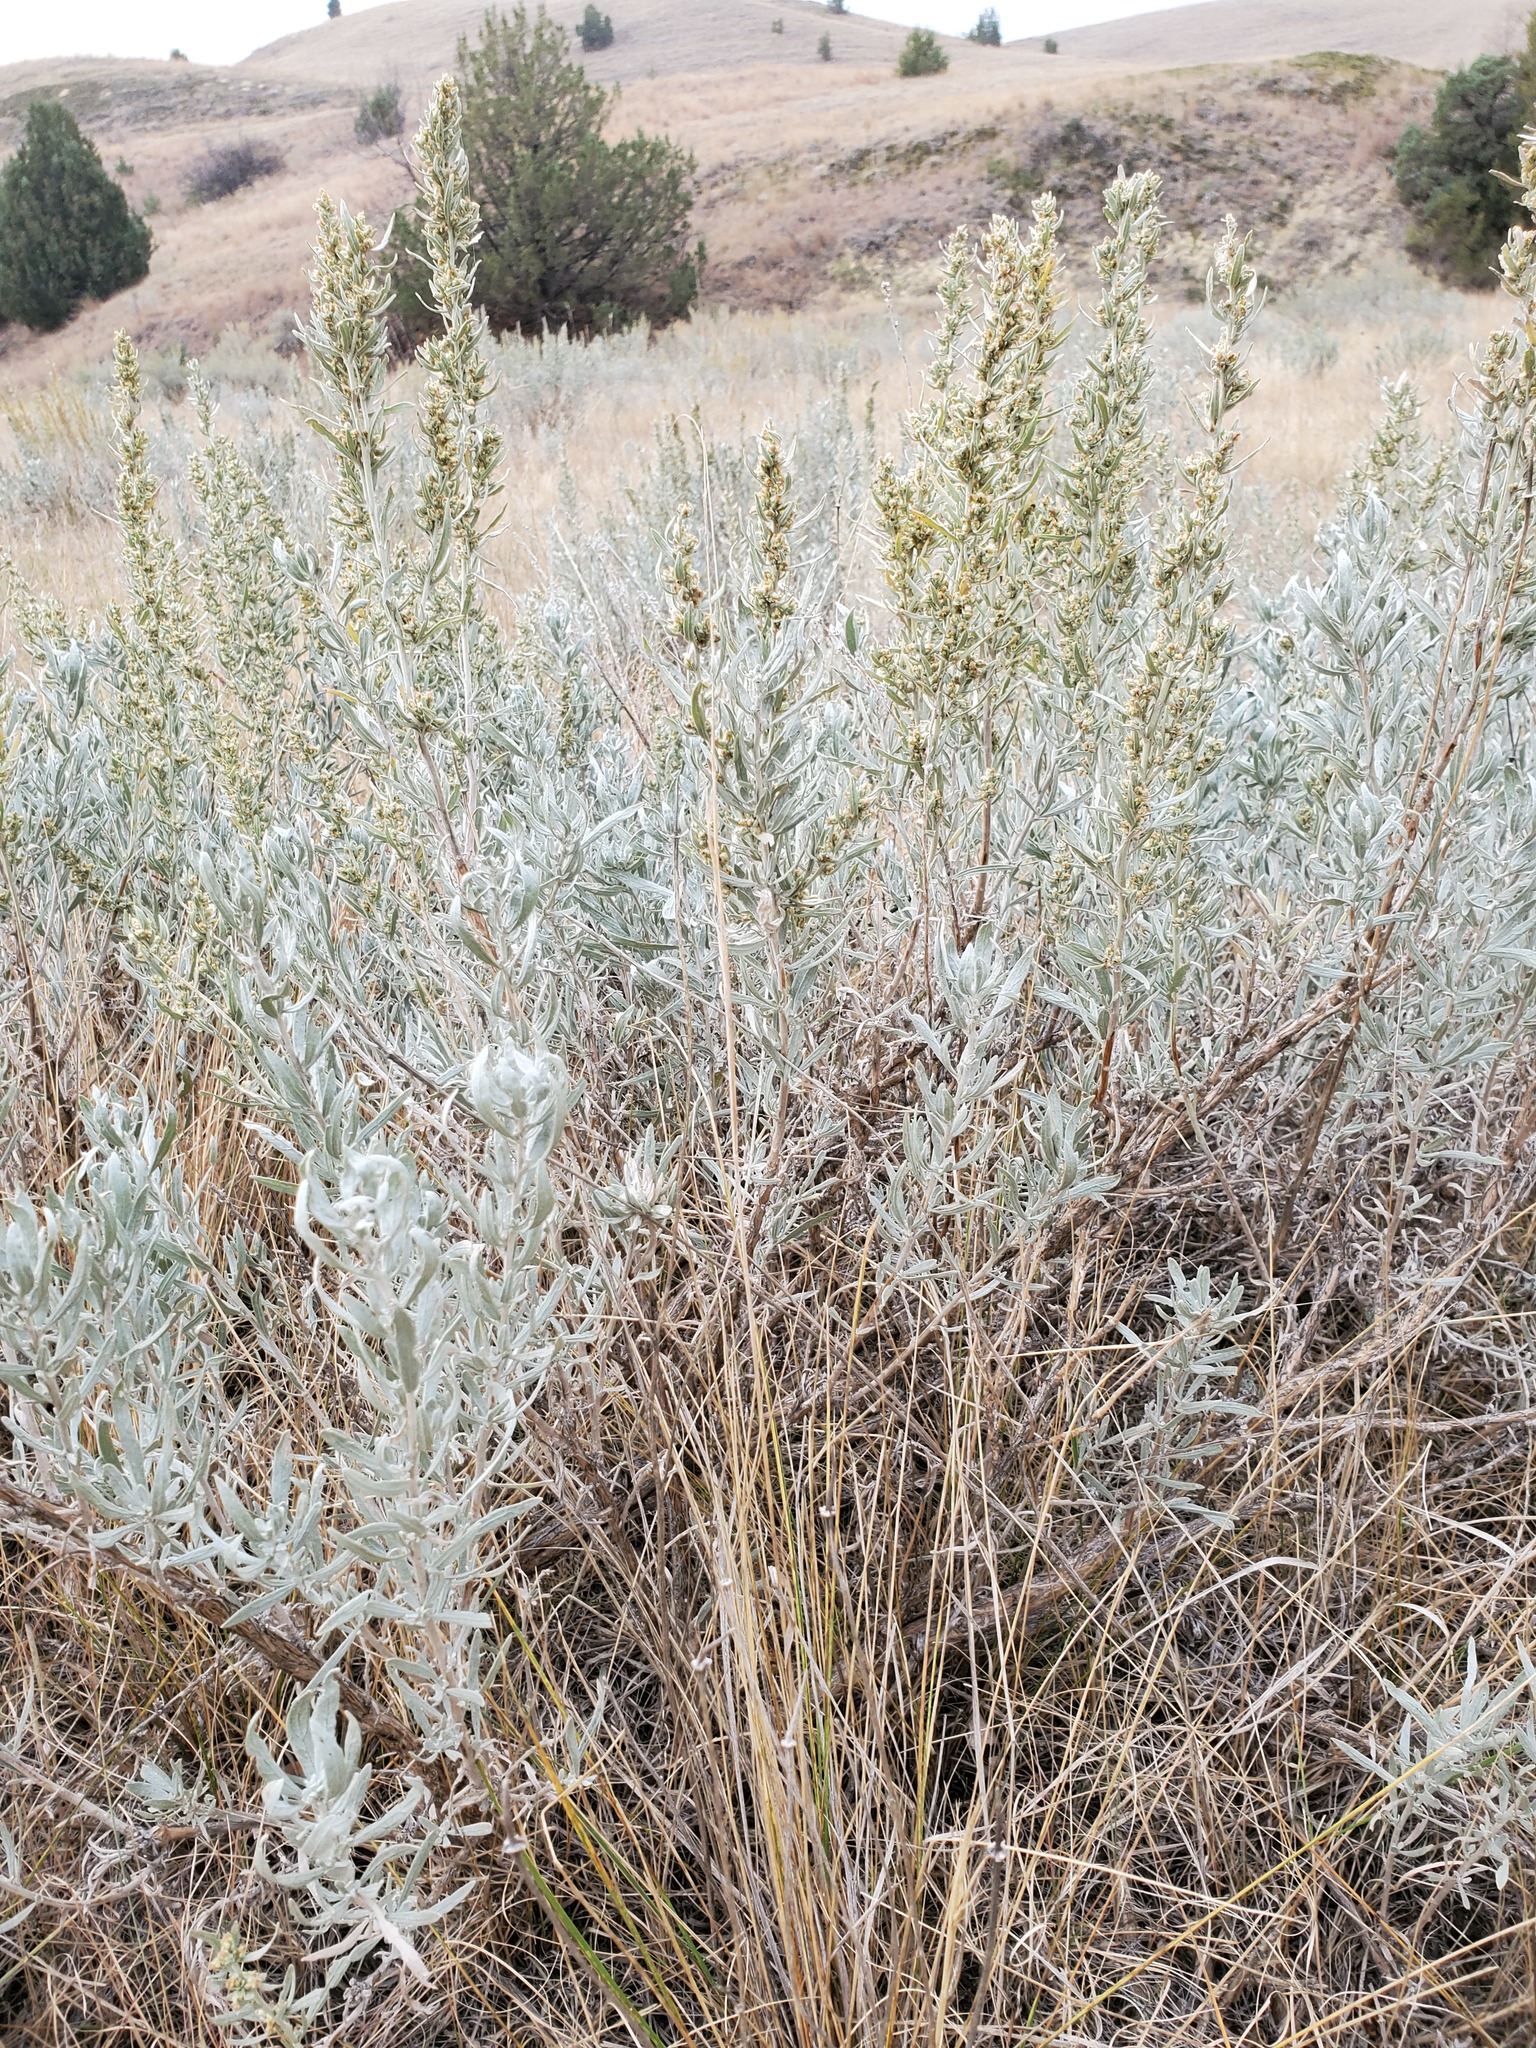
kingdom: Plantae
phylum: Tracheophyta
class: Magnoliopsida
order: Asterales
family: Asteraceae
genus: Artemisia
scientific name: Artemisia cana
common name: Silver sagebrush
